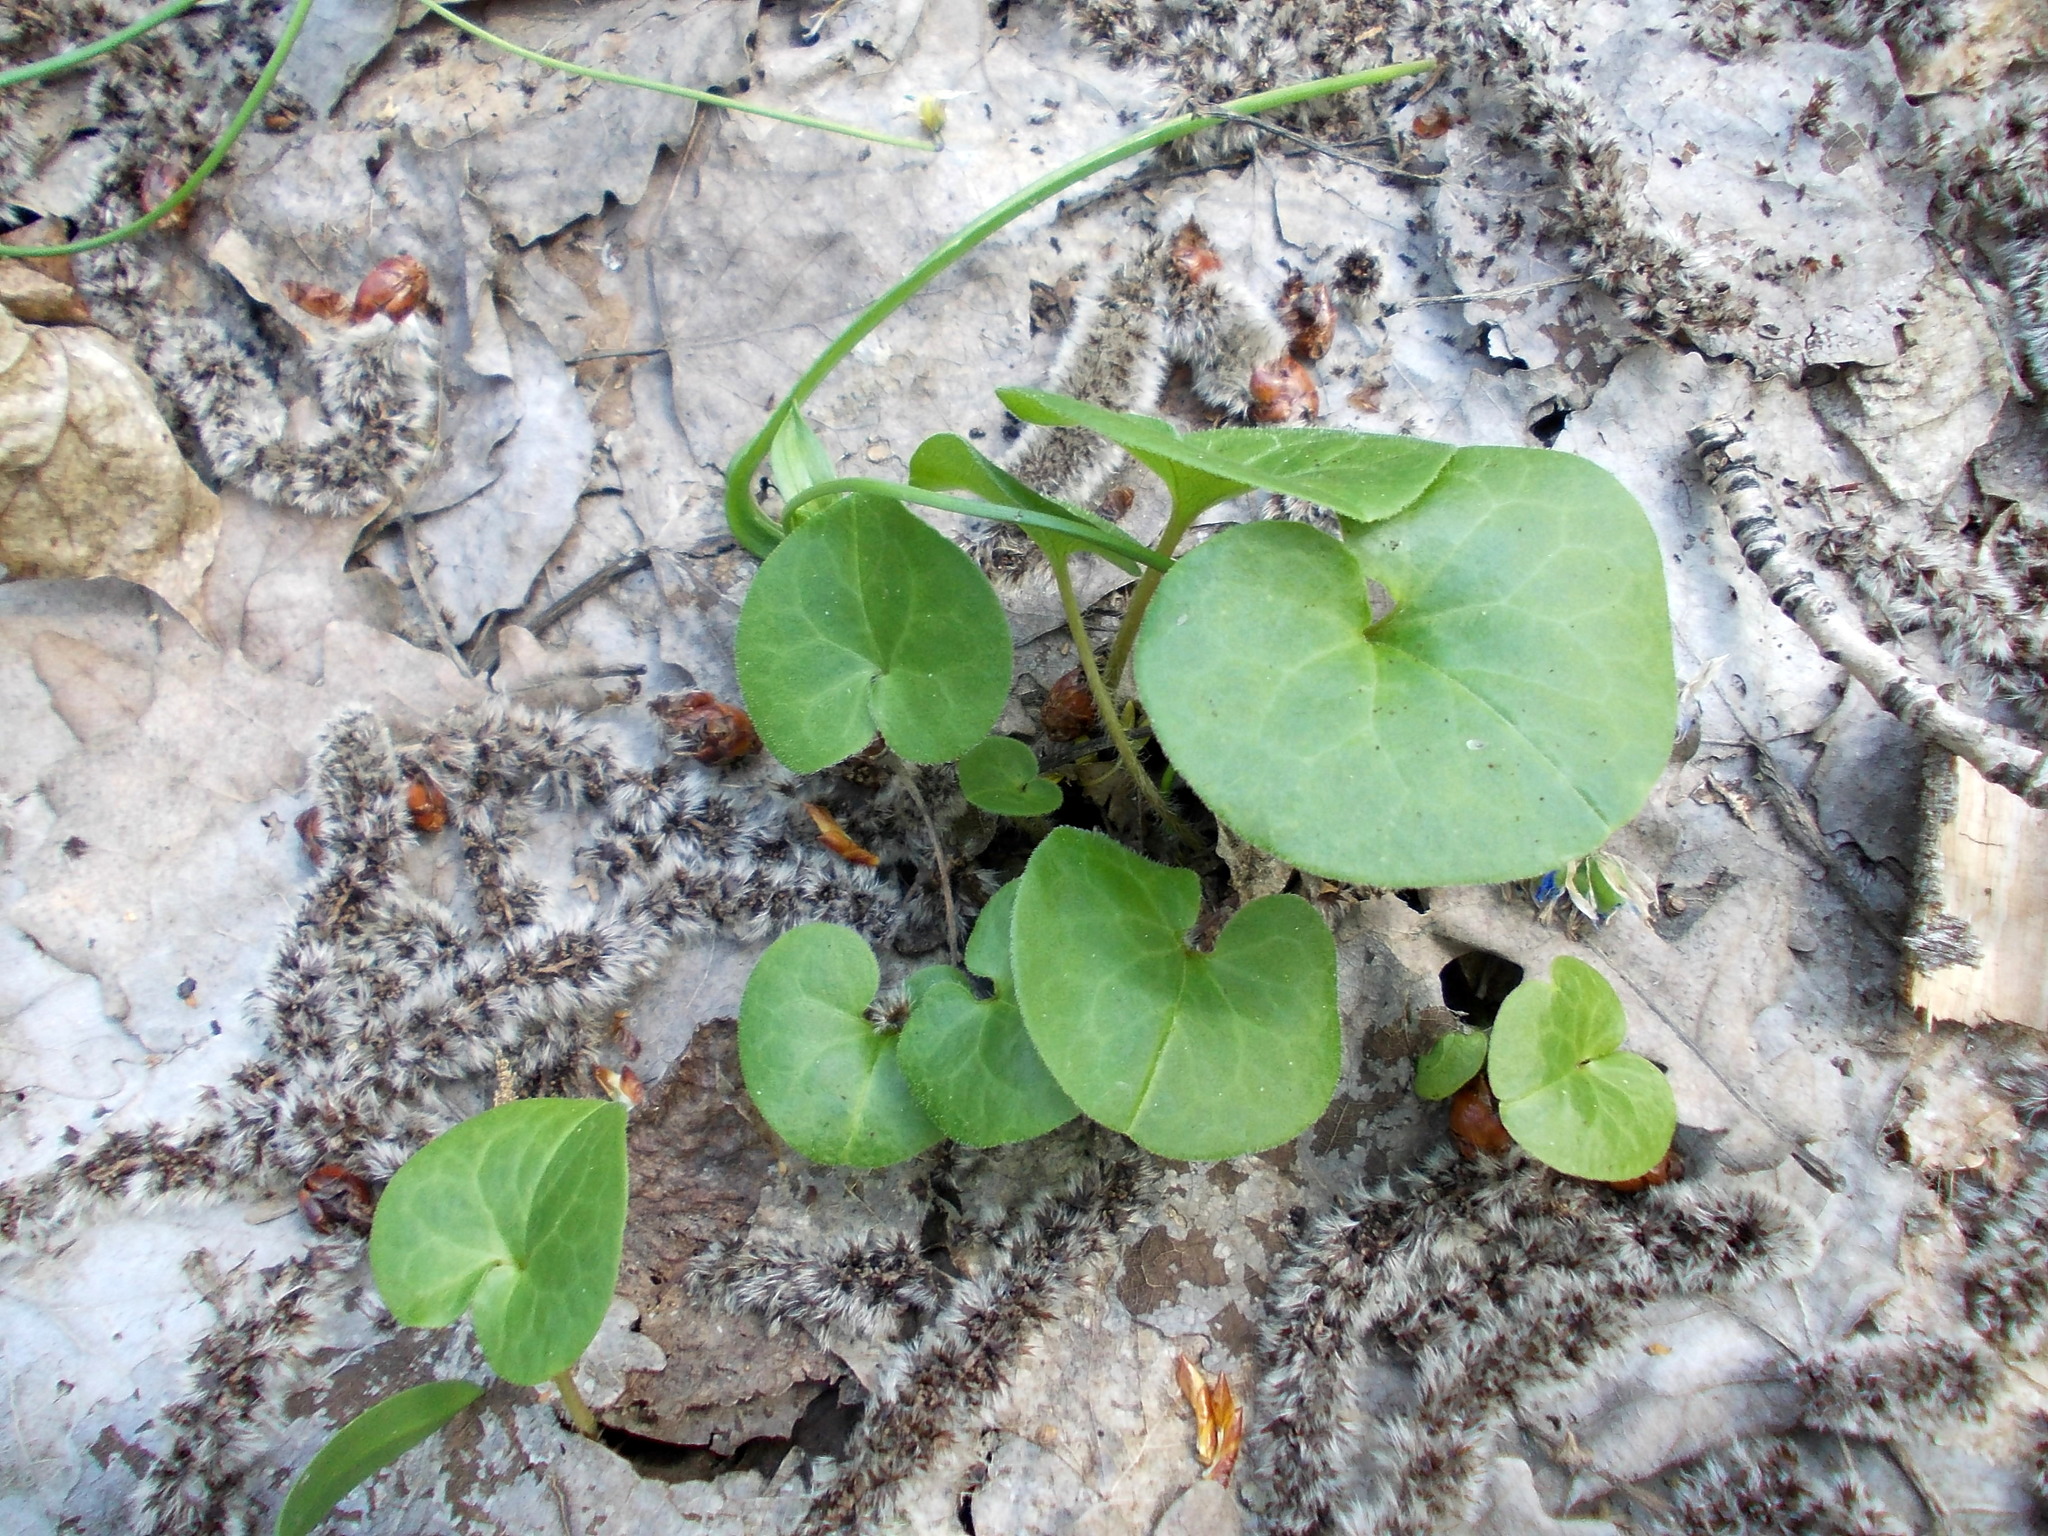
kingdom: Plantae
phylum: Tracheophyta
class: Magnoliopsida
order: Piperales
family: Aristolochiaceae
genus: Asarum
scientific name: Asarum europaeum
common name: Asarabacca
